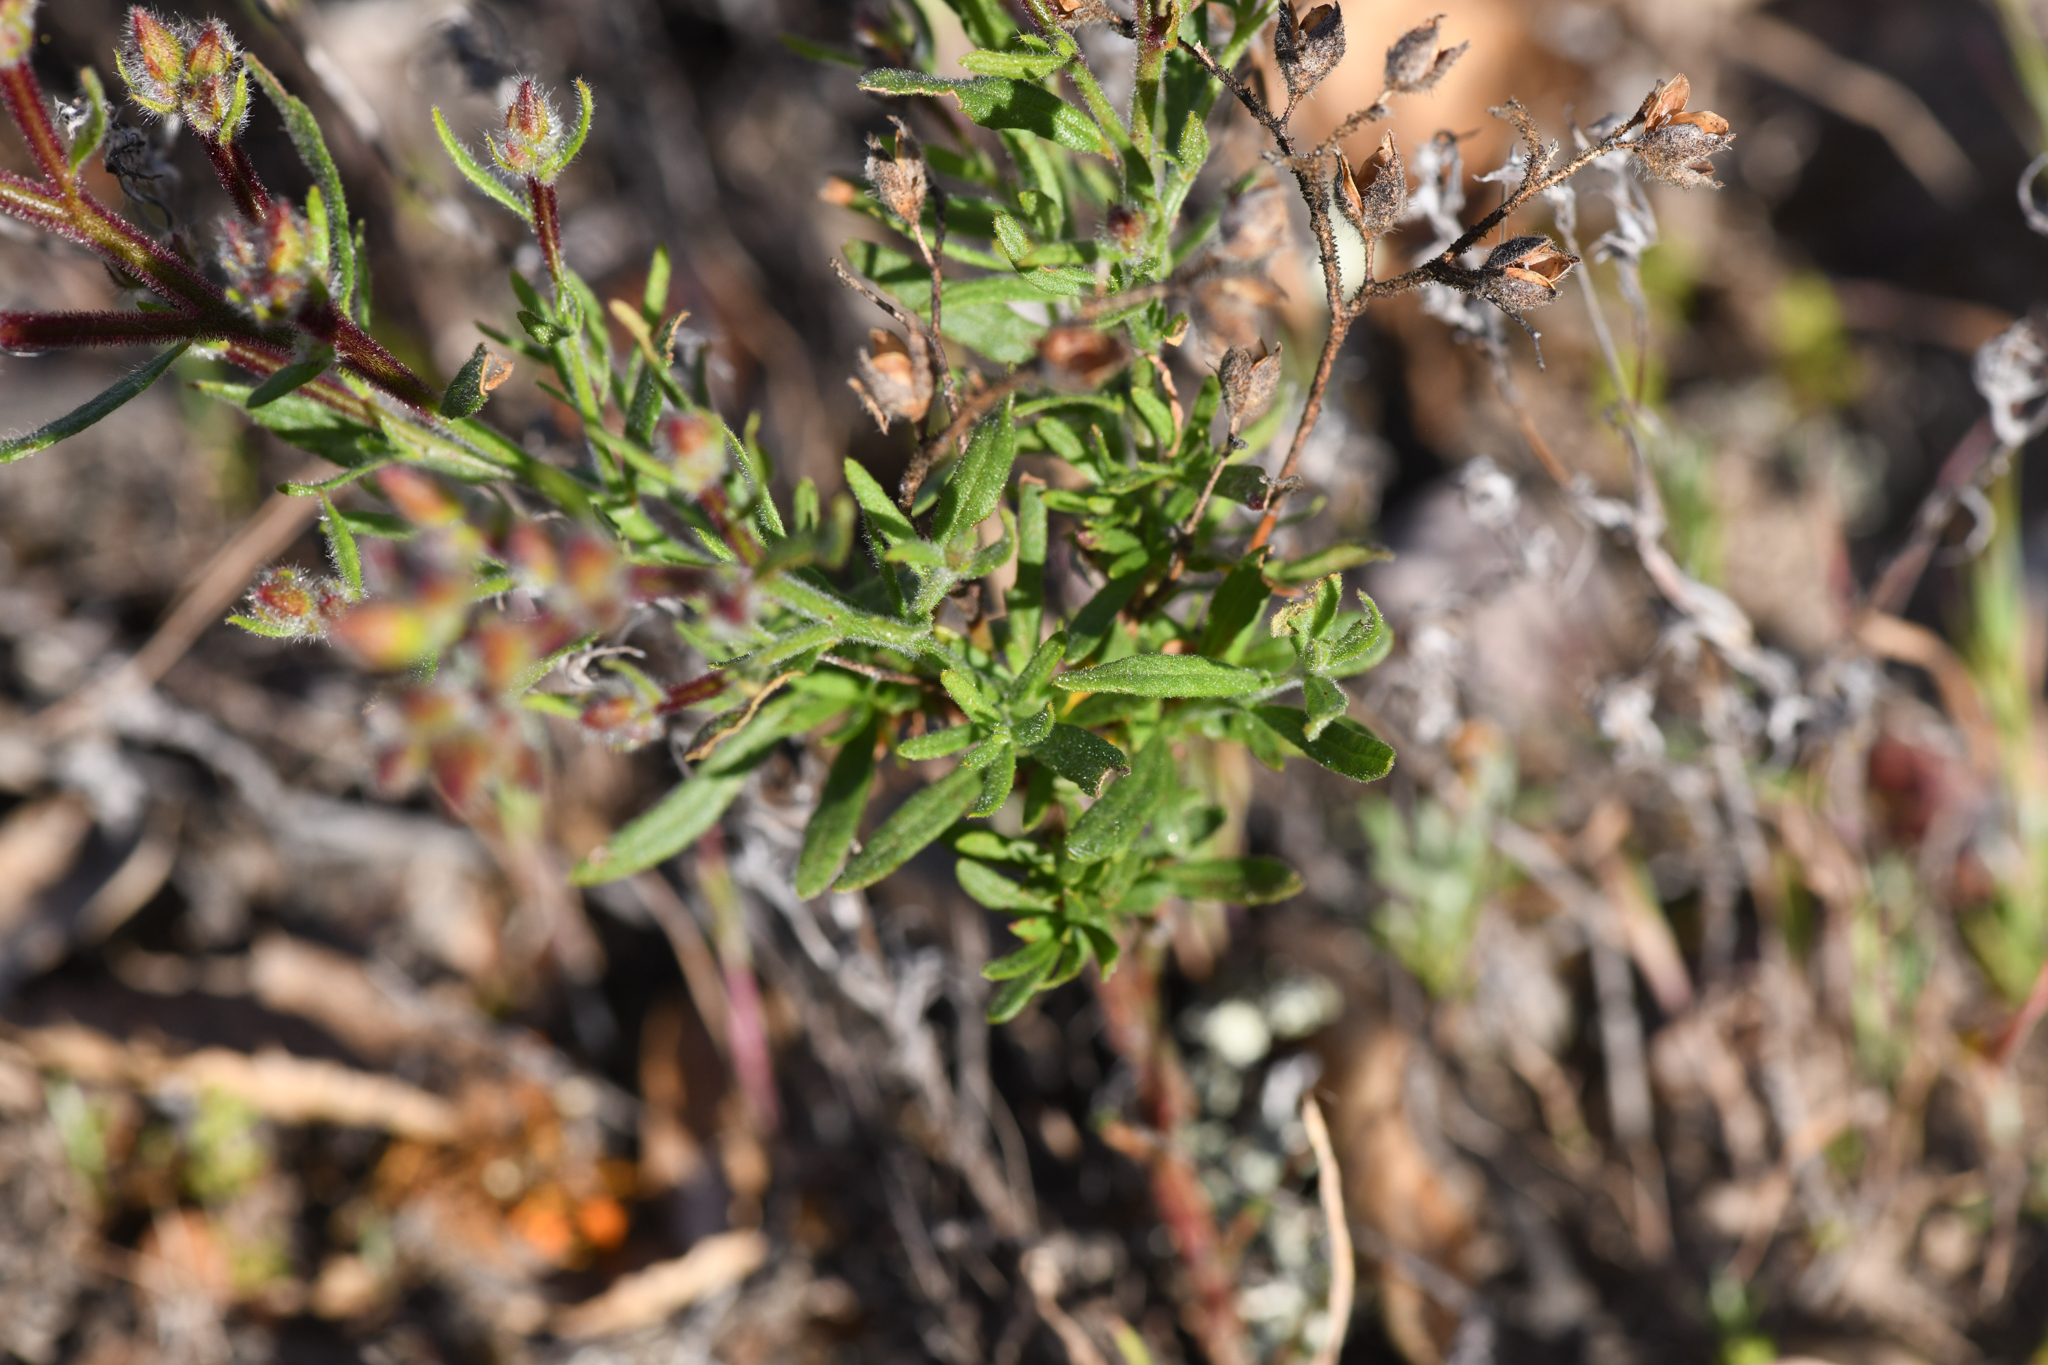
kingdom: Plantae
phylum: Tracheophyta
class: Magnoliopsida
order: Malvales
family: Cistaceae
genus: Crocanthemum
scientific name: Crocanthemum greenei
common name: Island rush-rose
